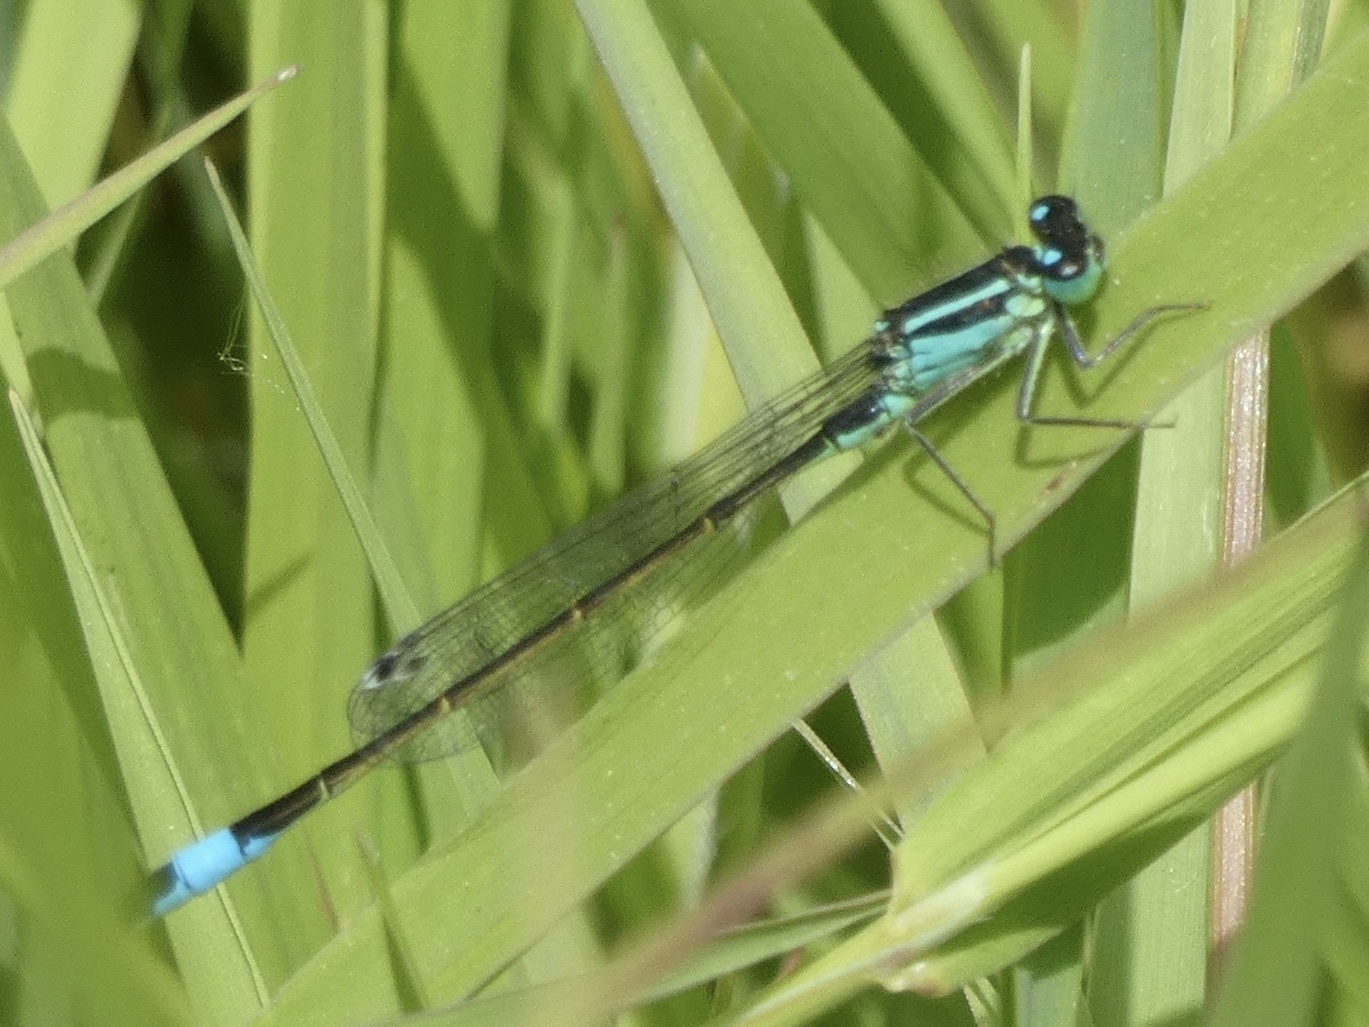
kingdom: Animalia
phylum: Arthropoda
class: Insecta
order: Odonata
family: Coenagrionidae
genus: Ischnura
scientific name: Ischnura elegans
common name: Blue-tailed damselfly
